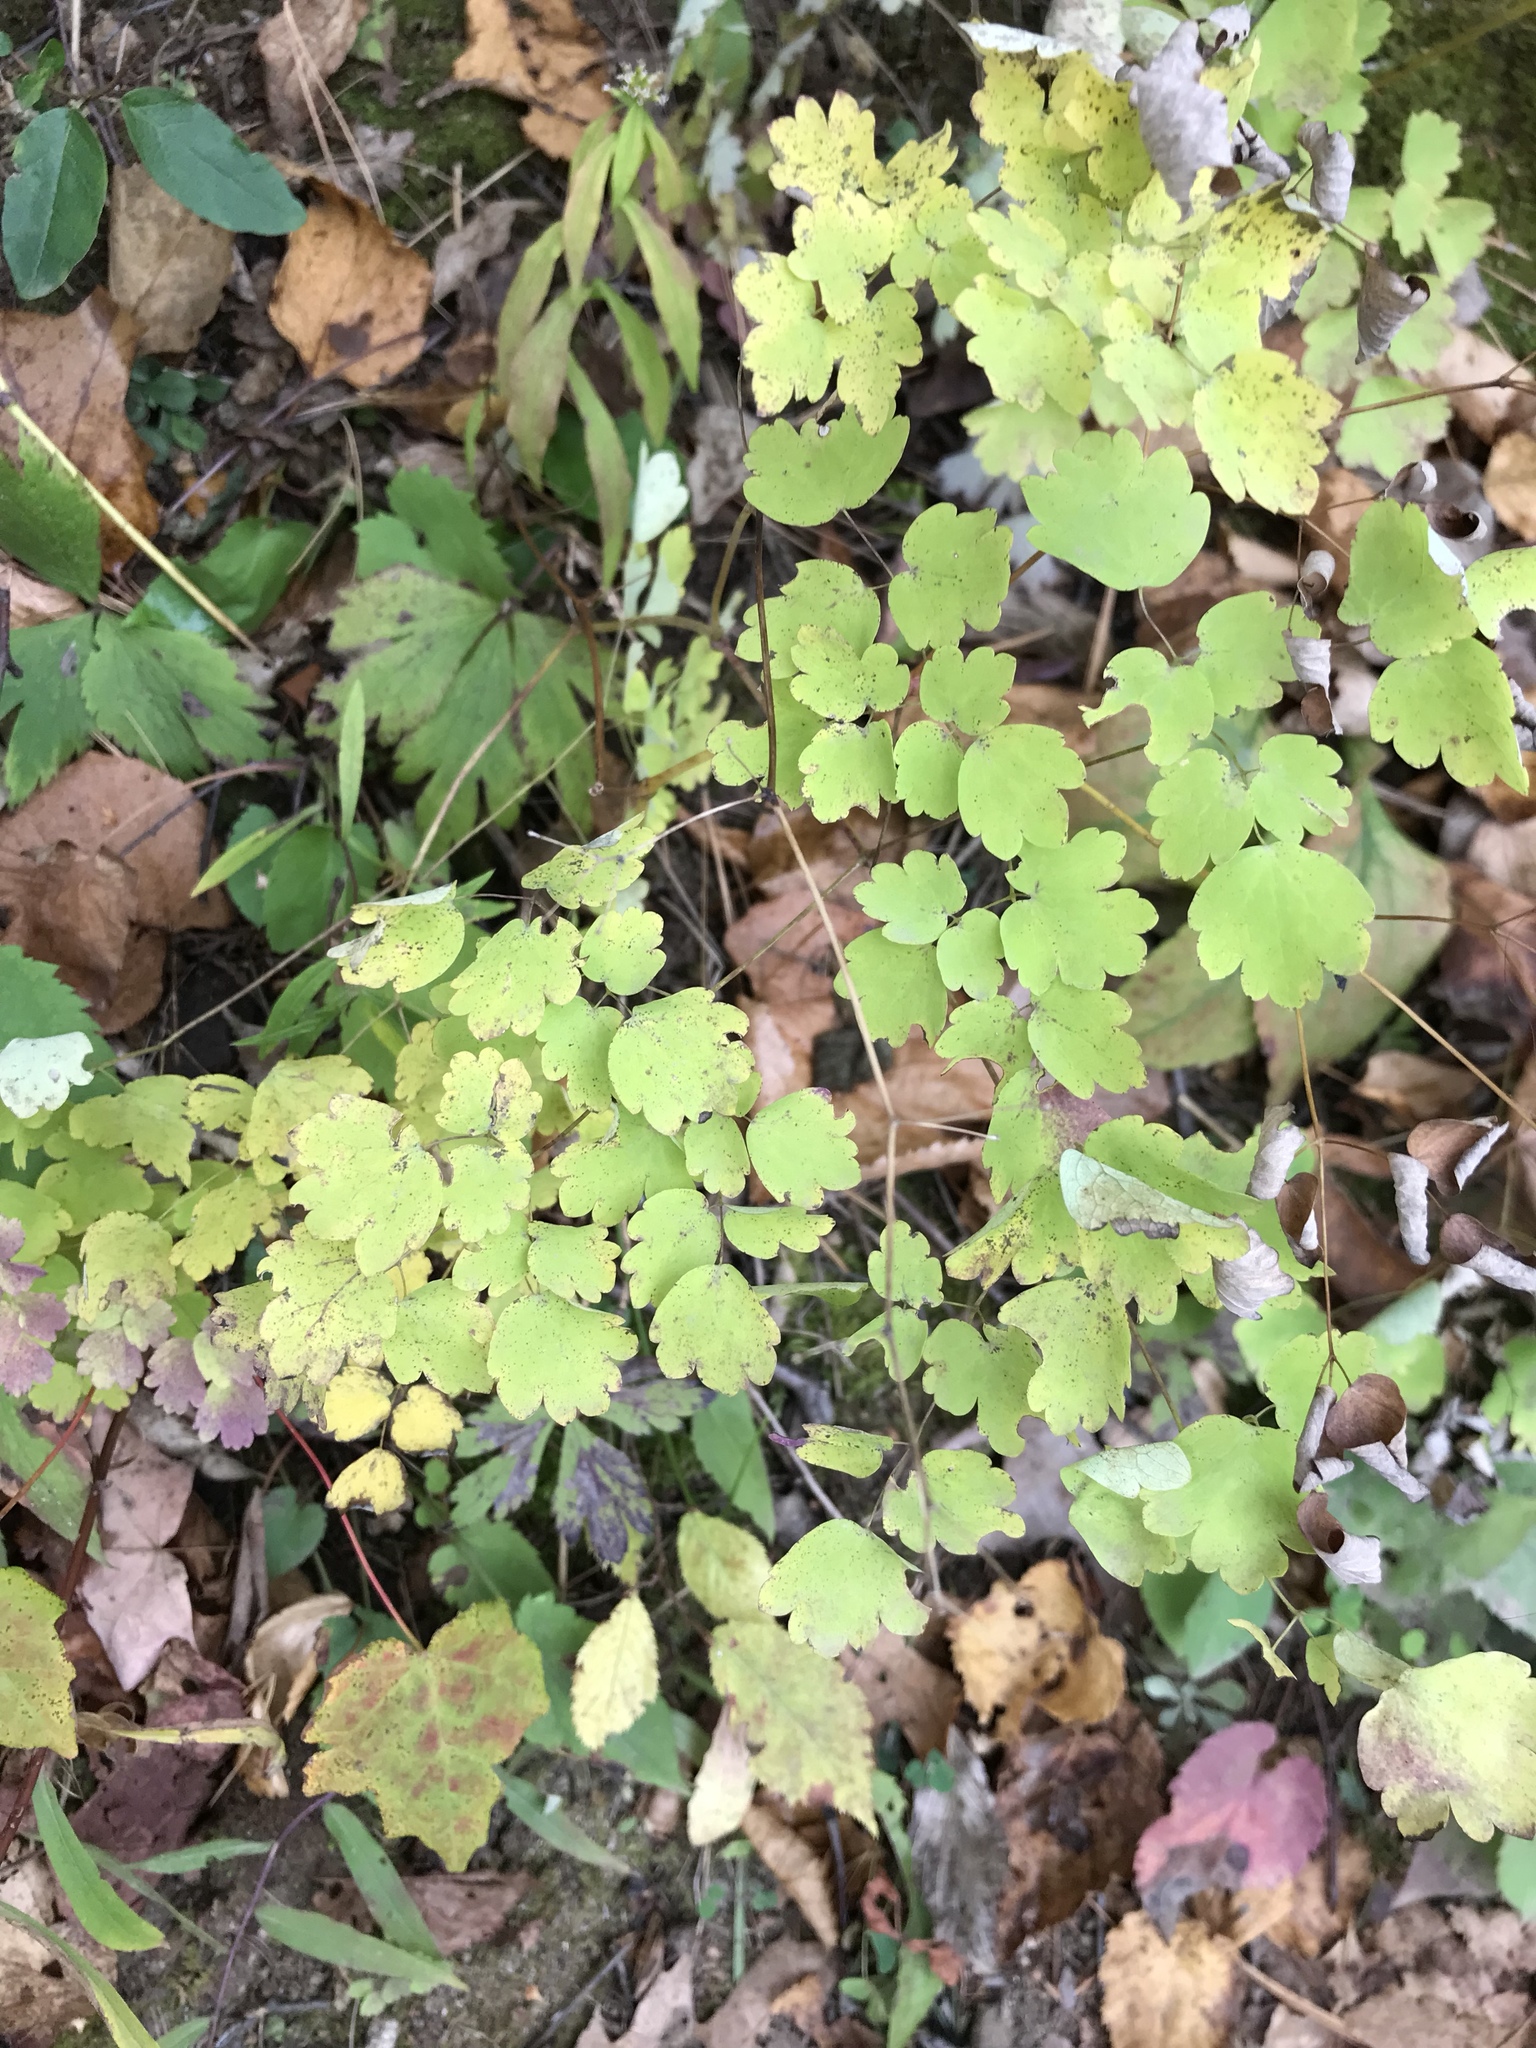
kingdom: Plantae
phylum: Tracheophyta
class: Magnoliopsida
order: Ranunculales
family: Ranunculaceae
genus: Thalictrum
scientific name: Thalictrum dioicum
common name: Early meadow-rue
